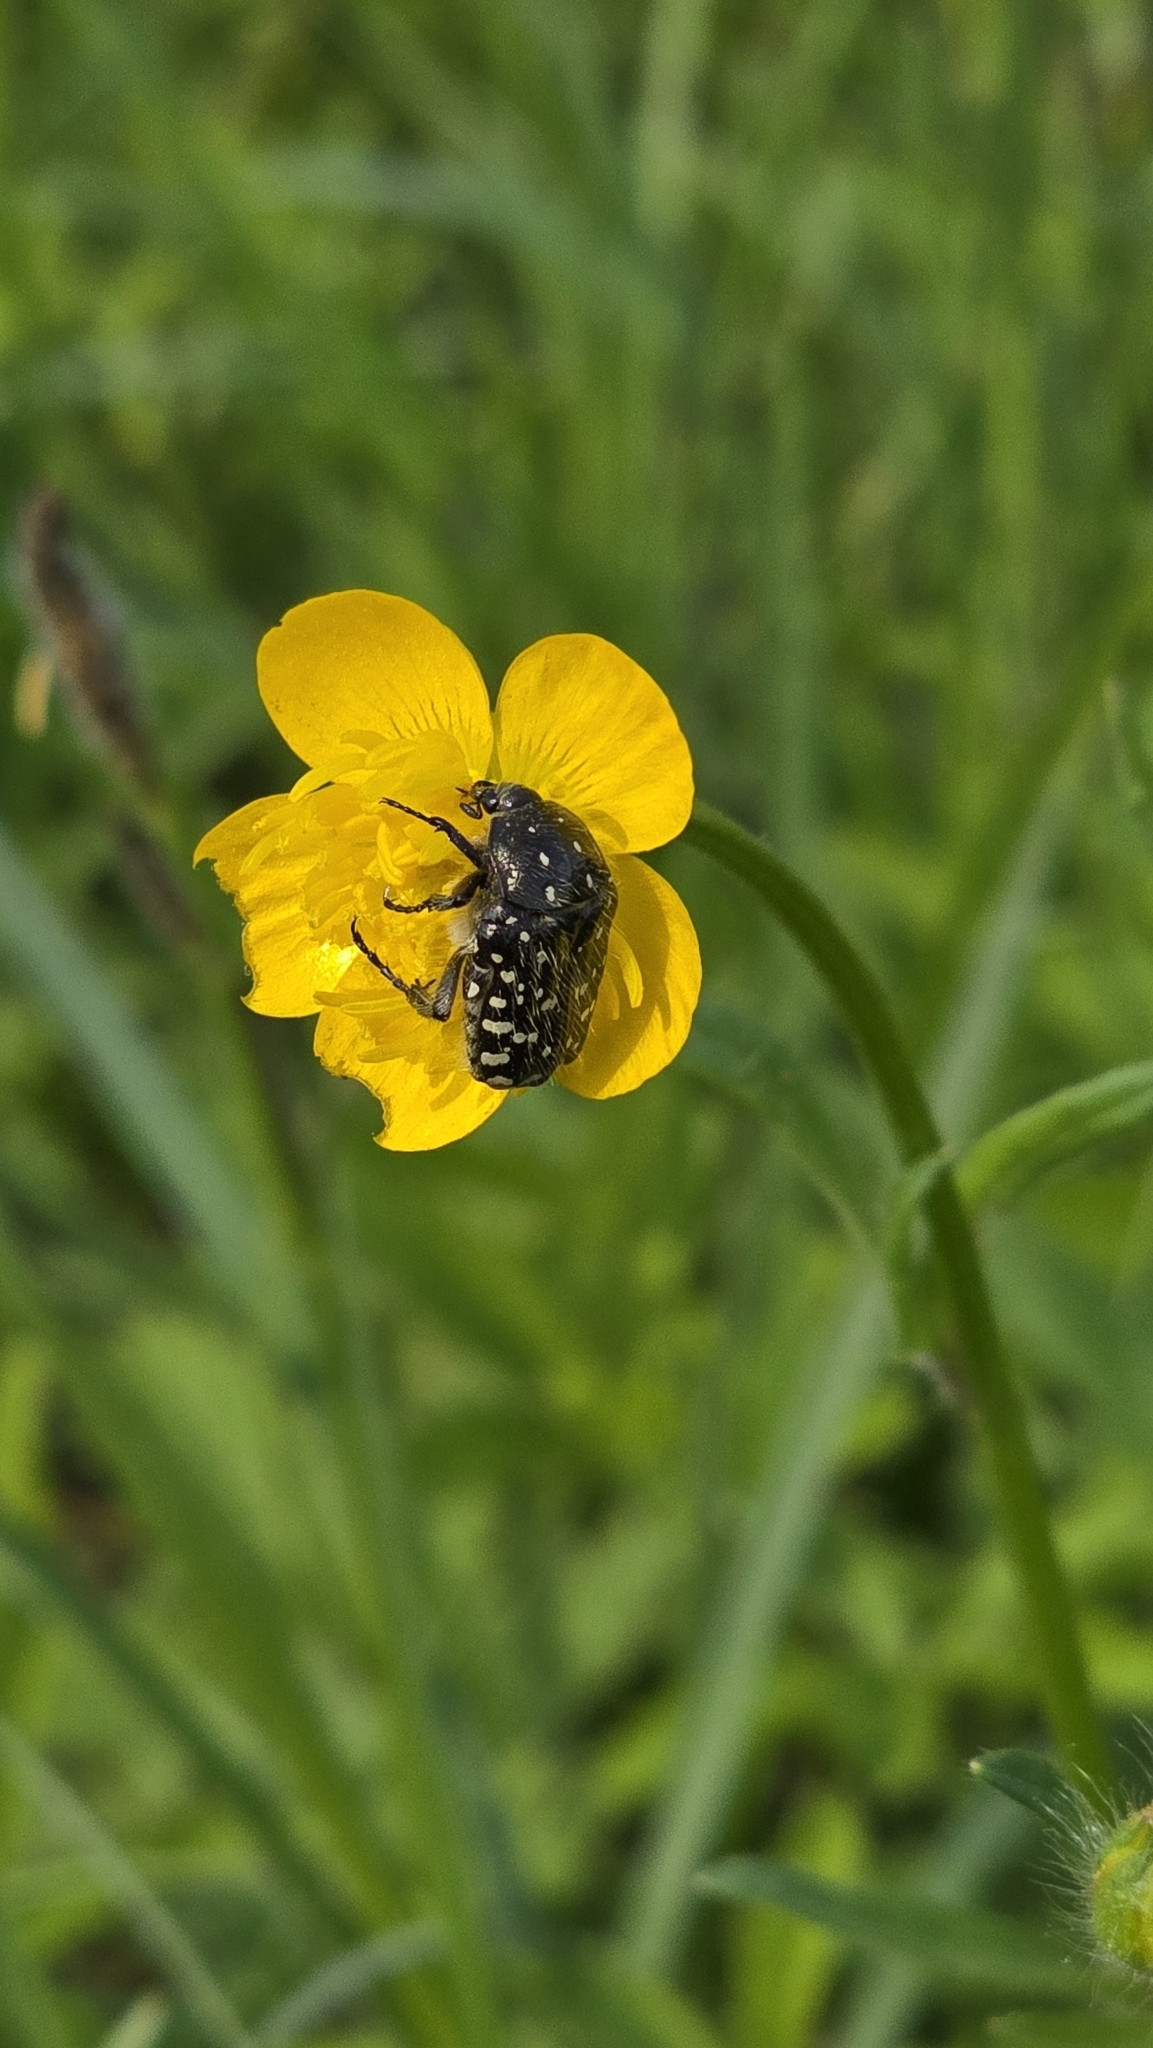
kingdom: Animalia
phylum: Arthropoda
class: Insecta
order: Coleoptera
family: Scarabaeidae
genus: Oxythyrea
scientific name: Oxythyrea funesta
